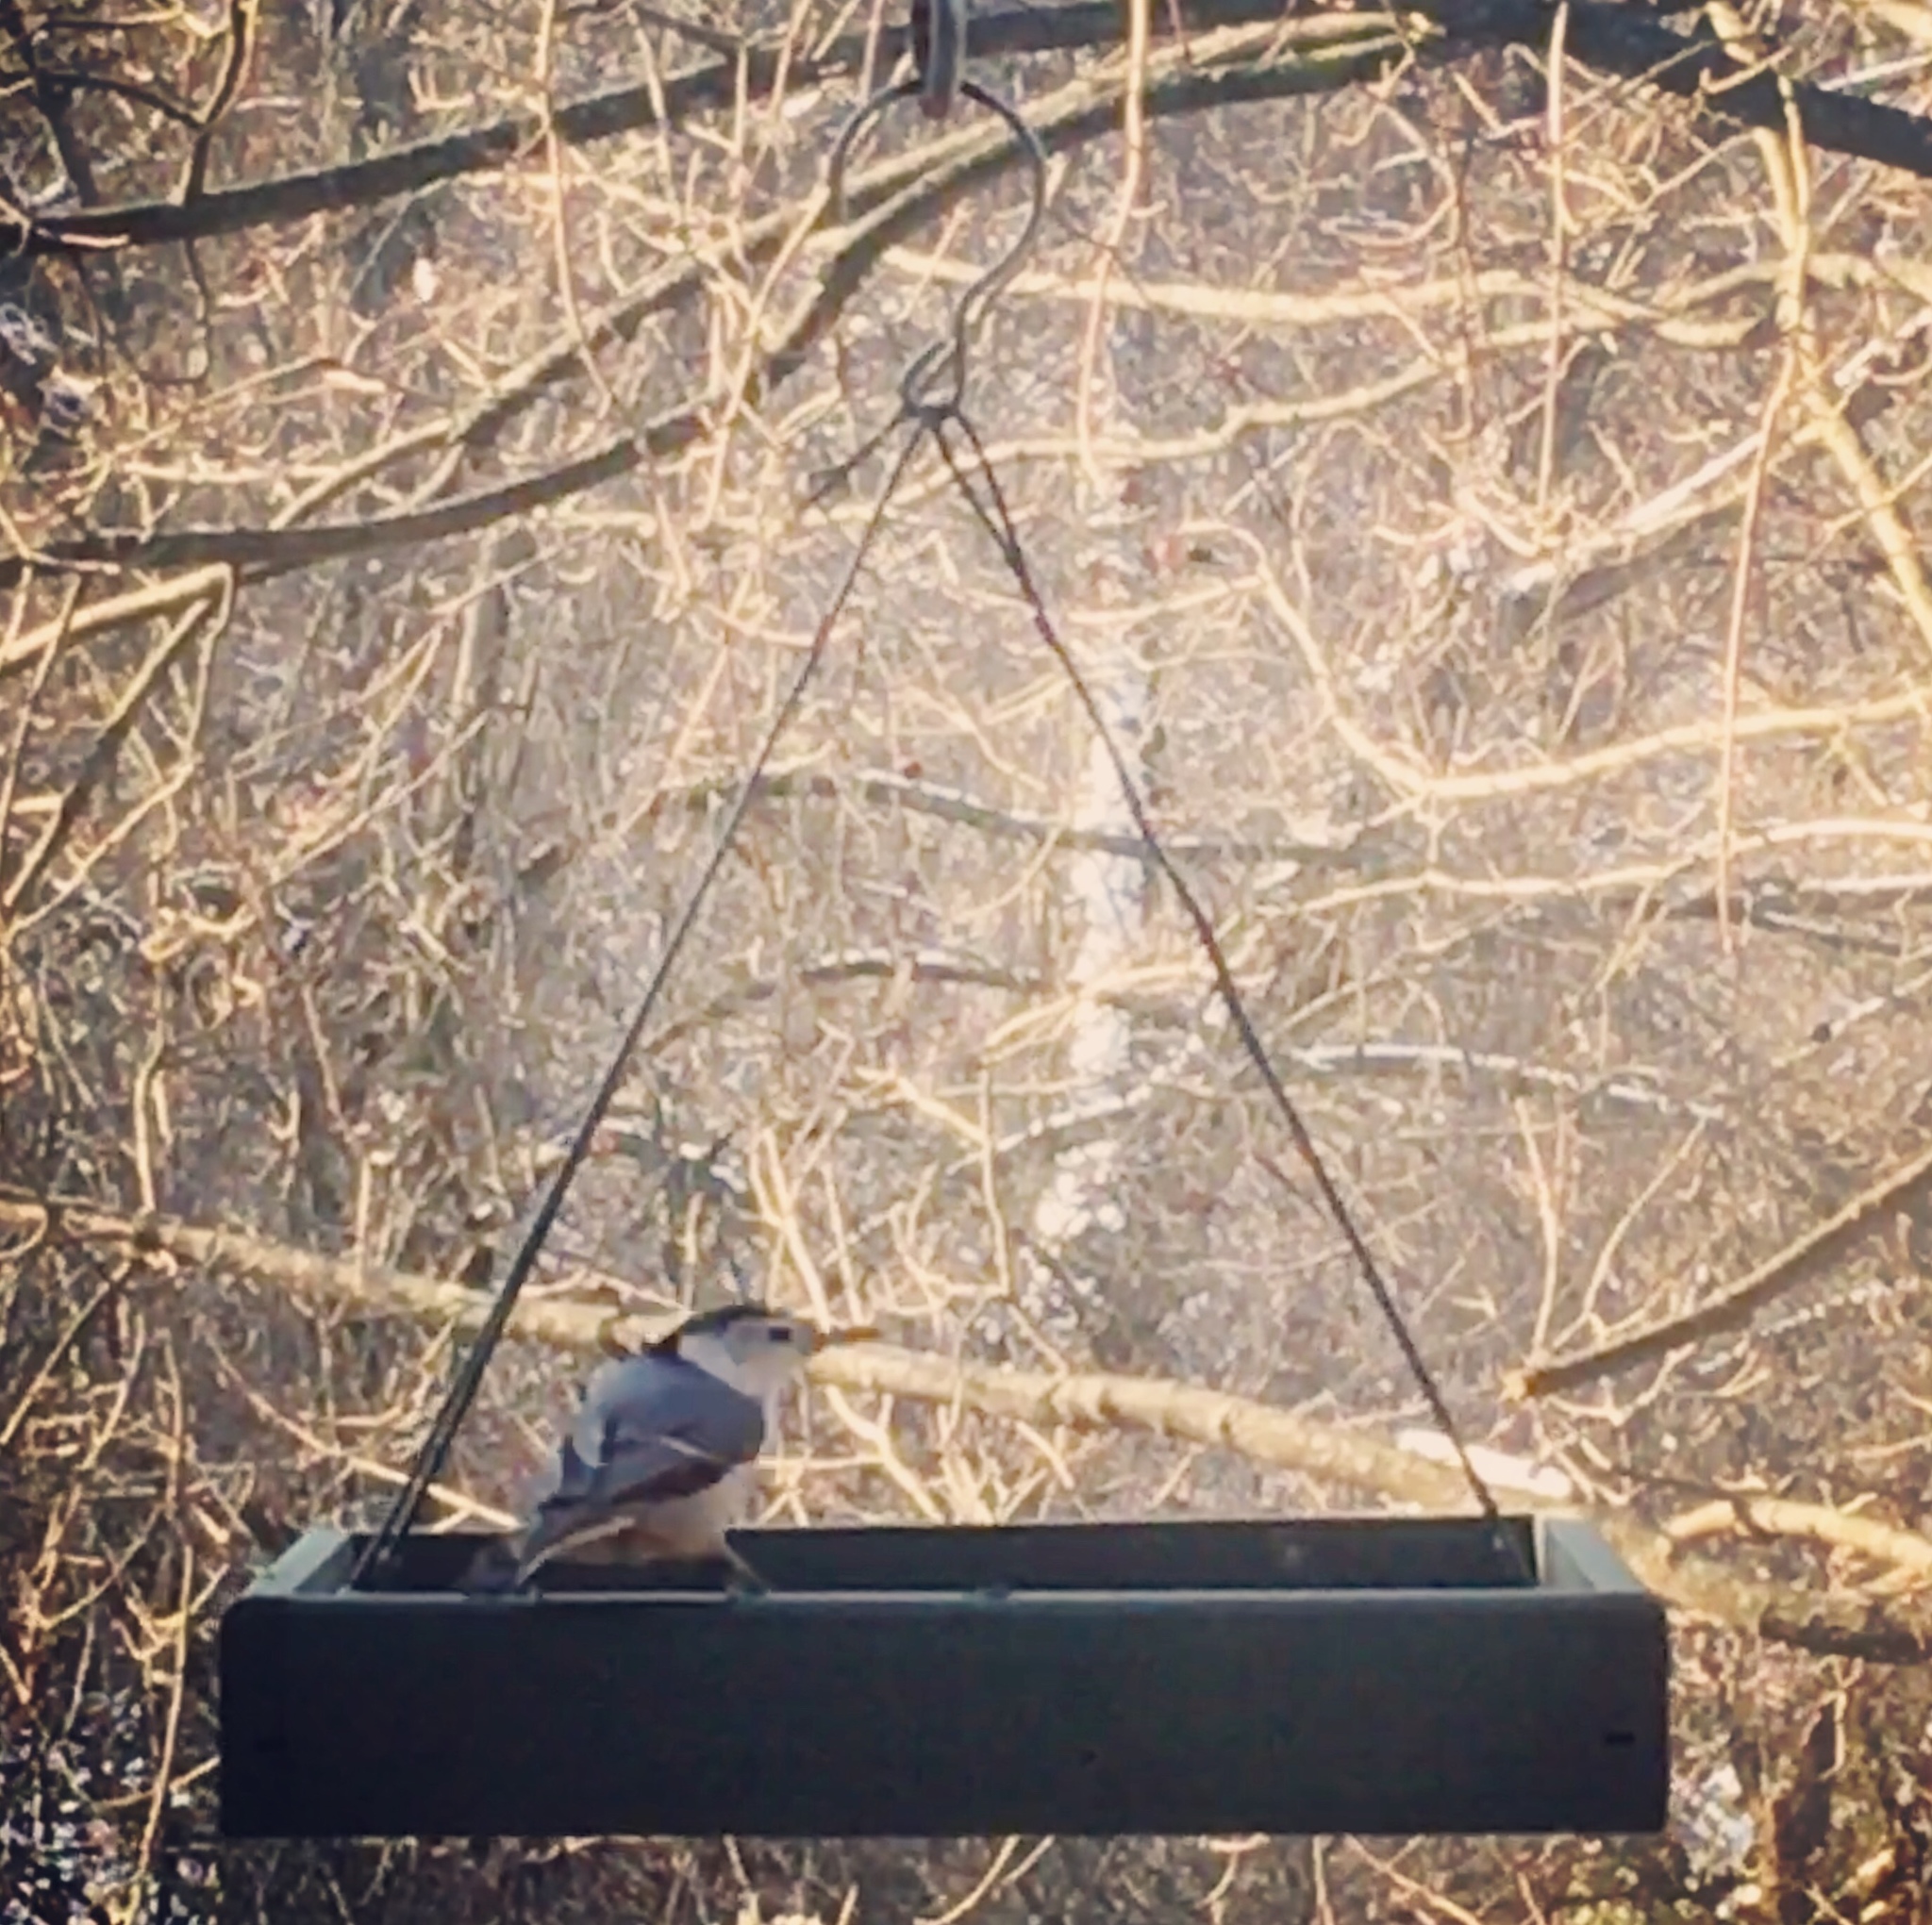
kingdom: Animalia
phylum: Chordata
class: Aves
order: Passeriformes
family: Sittidae
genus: Sitta
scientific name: Sitta carolinensis
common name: White-breasted nuthatch
